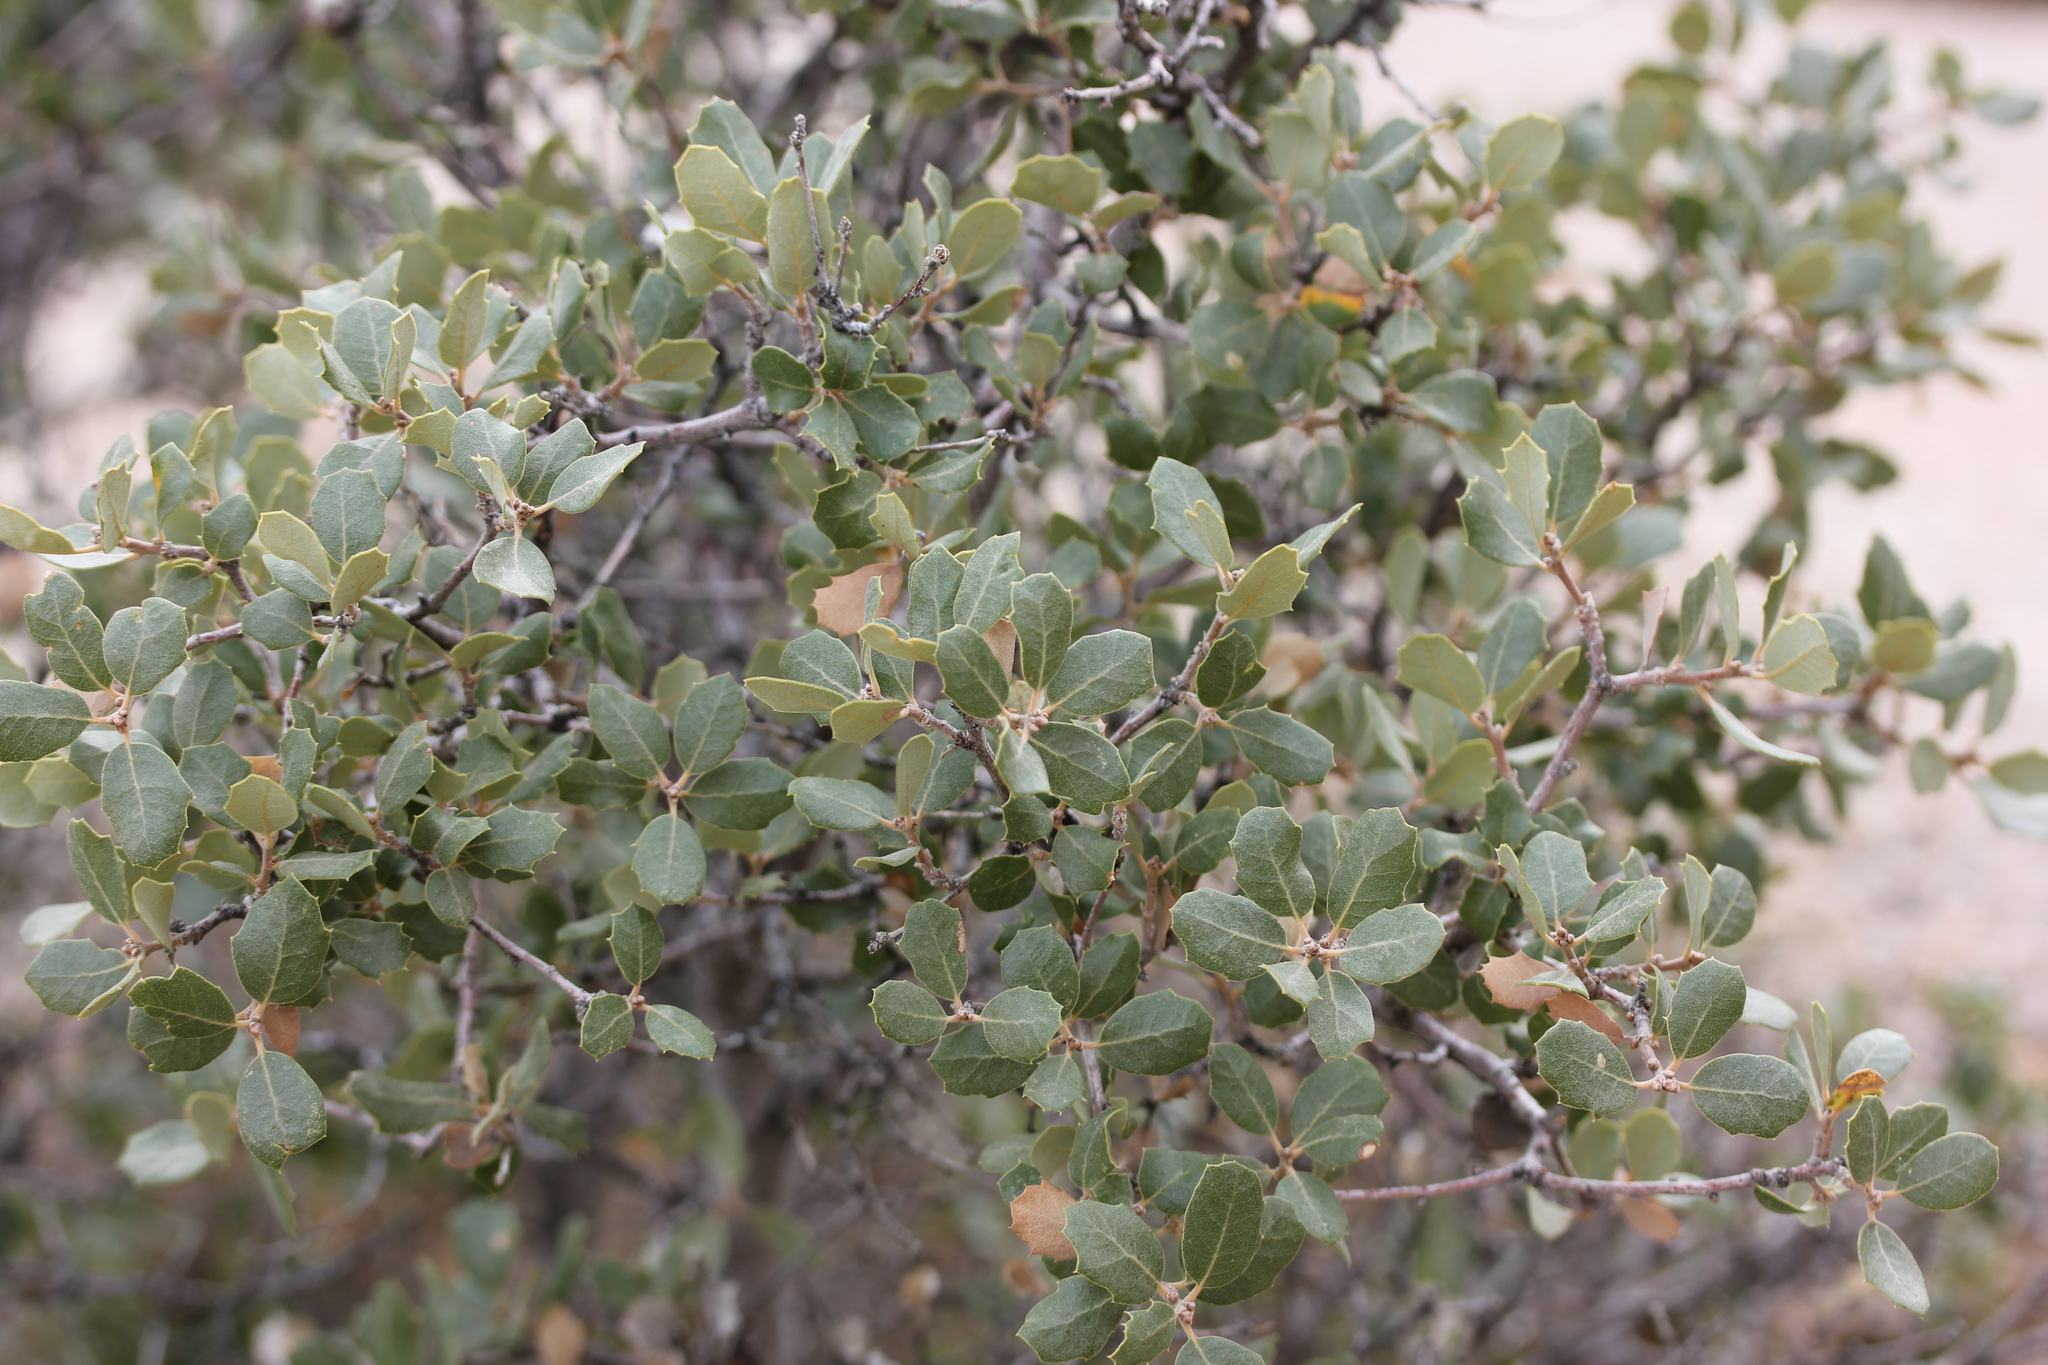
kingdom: Plantae
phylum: Tracheophyta
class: Magnoliopsida
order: Fagales
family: Fagaceae
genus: Quercus
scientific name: Quercus cornelius-mulleri
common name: Muller oak
